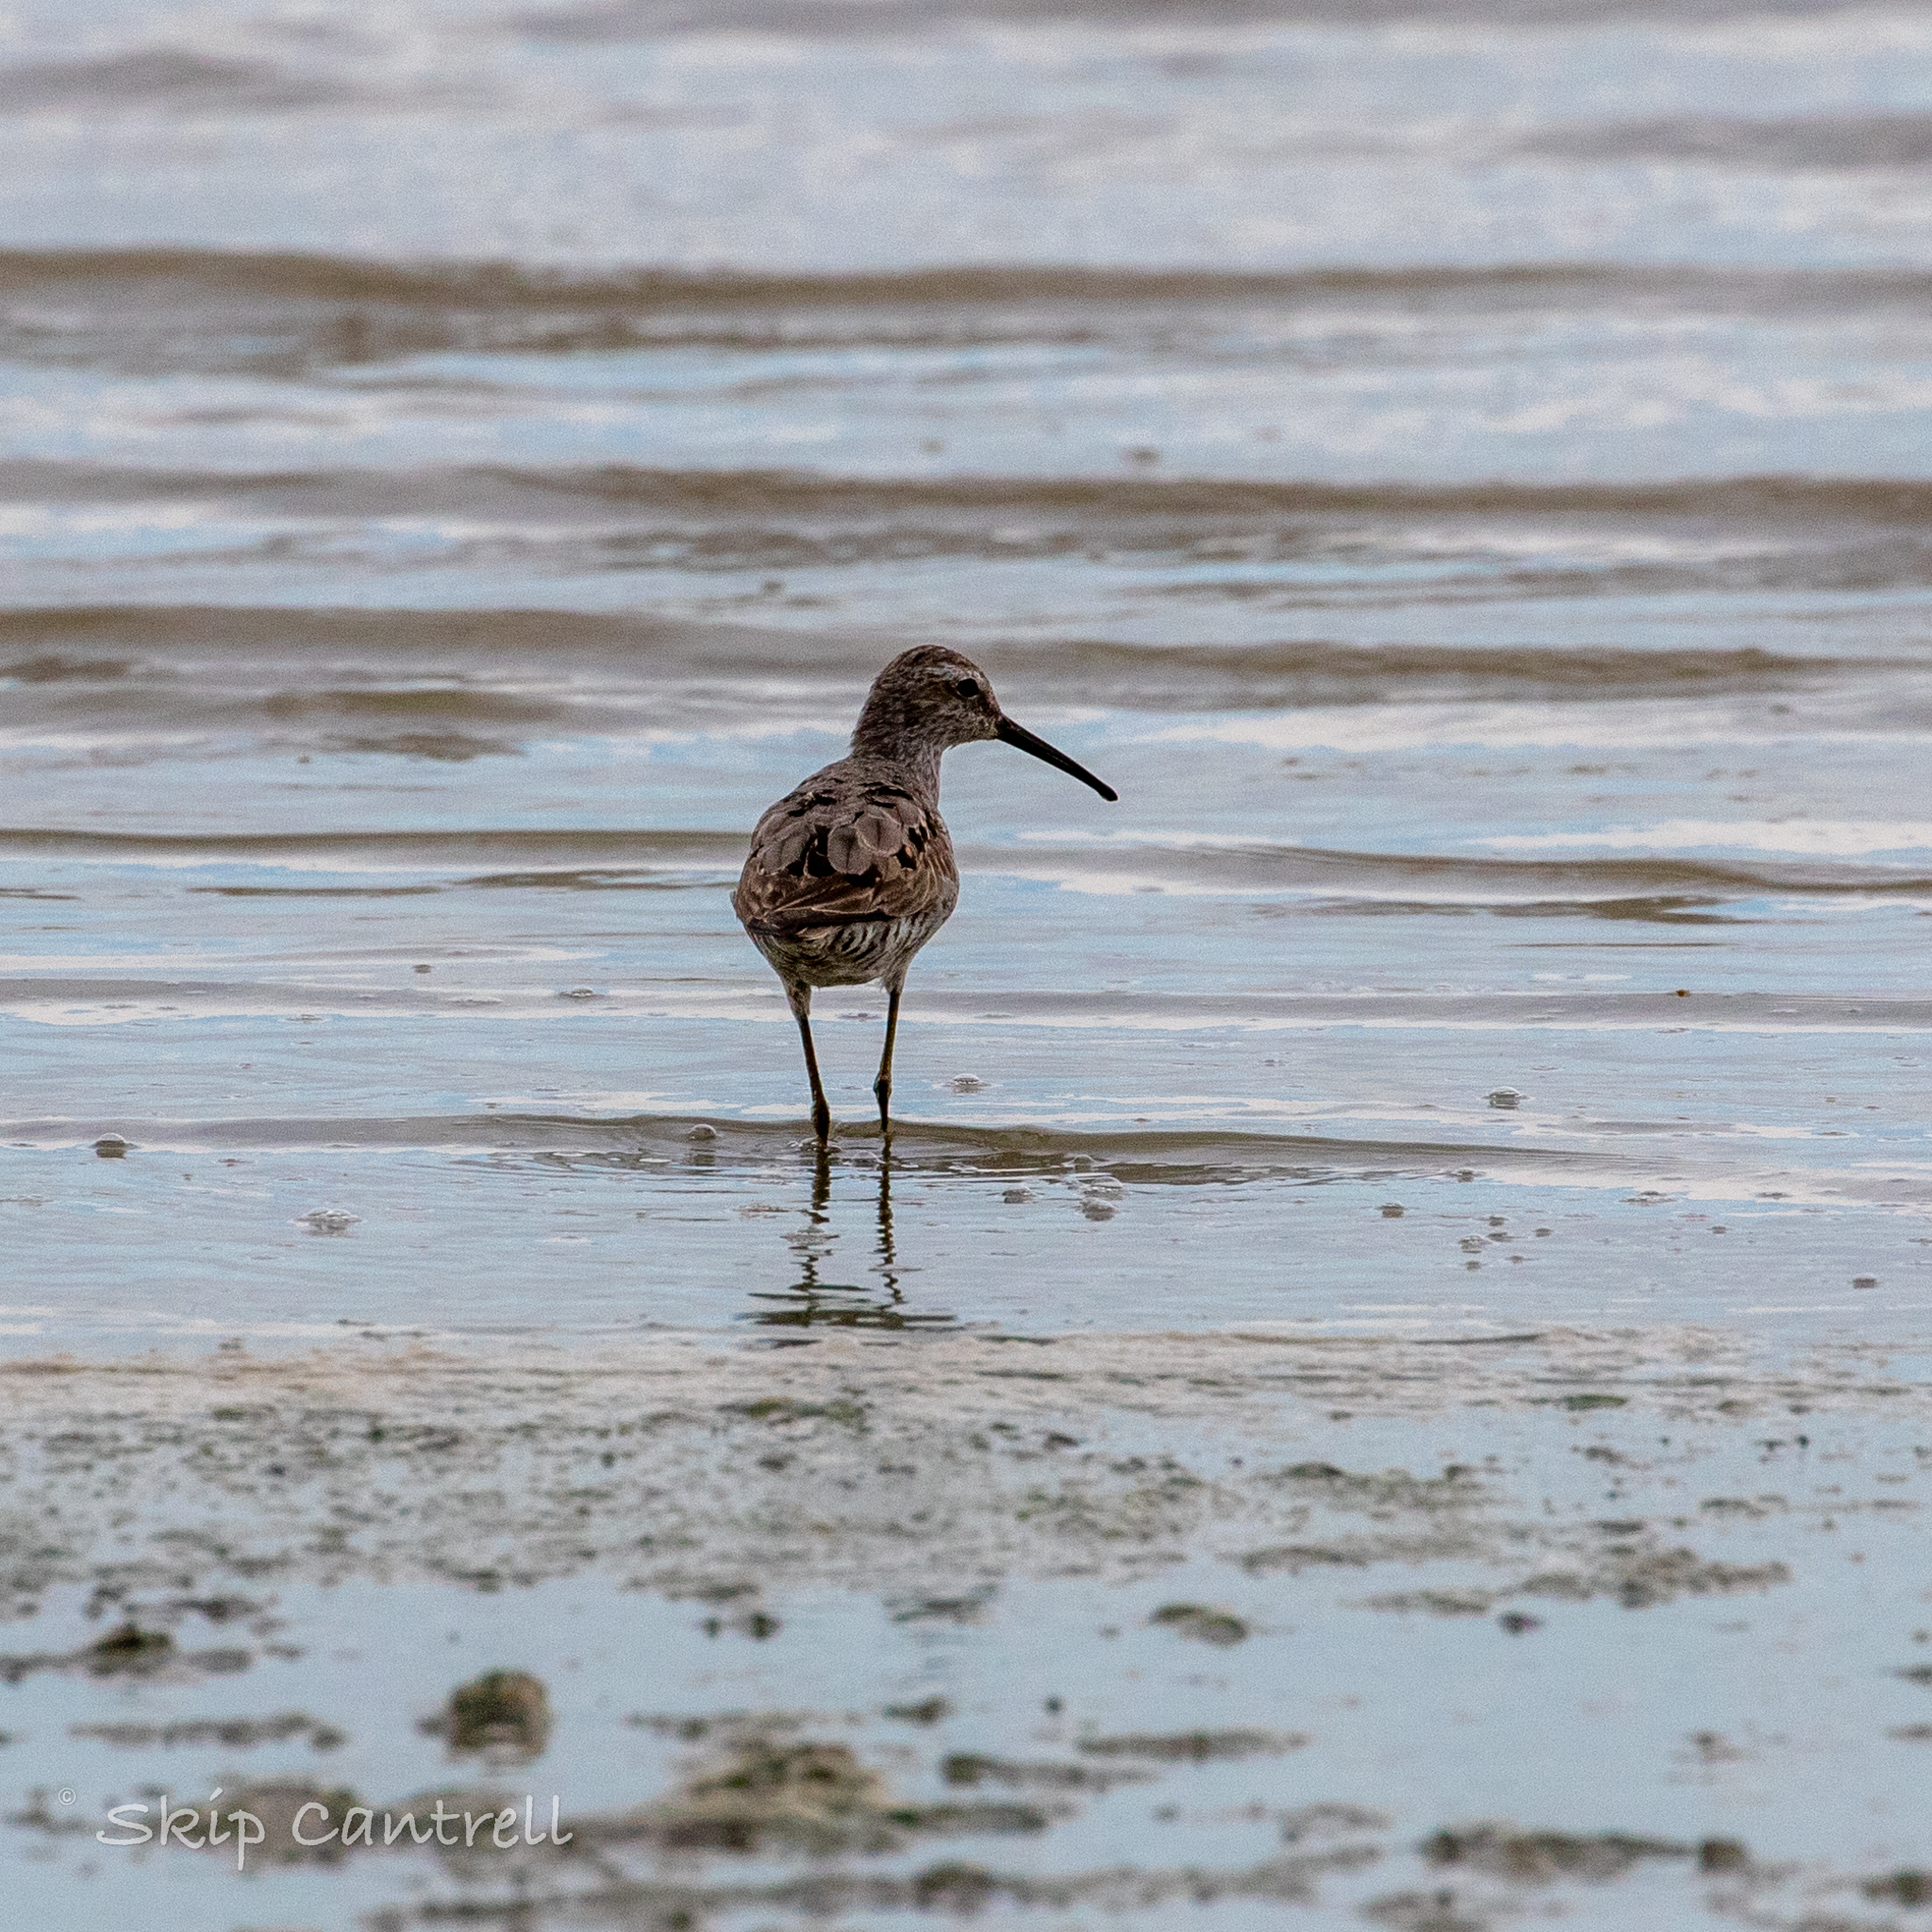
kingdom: Animalia
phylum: Chordata
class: Aves
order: Charadriiformes
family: Scolopacidae
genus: Calidris
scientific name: Calidris himantopus
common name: Stilt sandpiper
